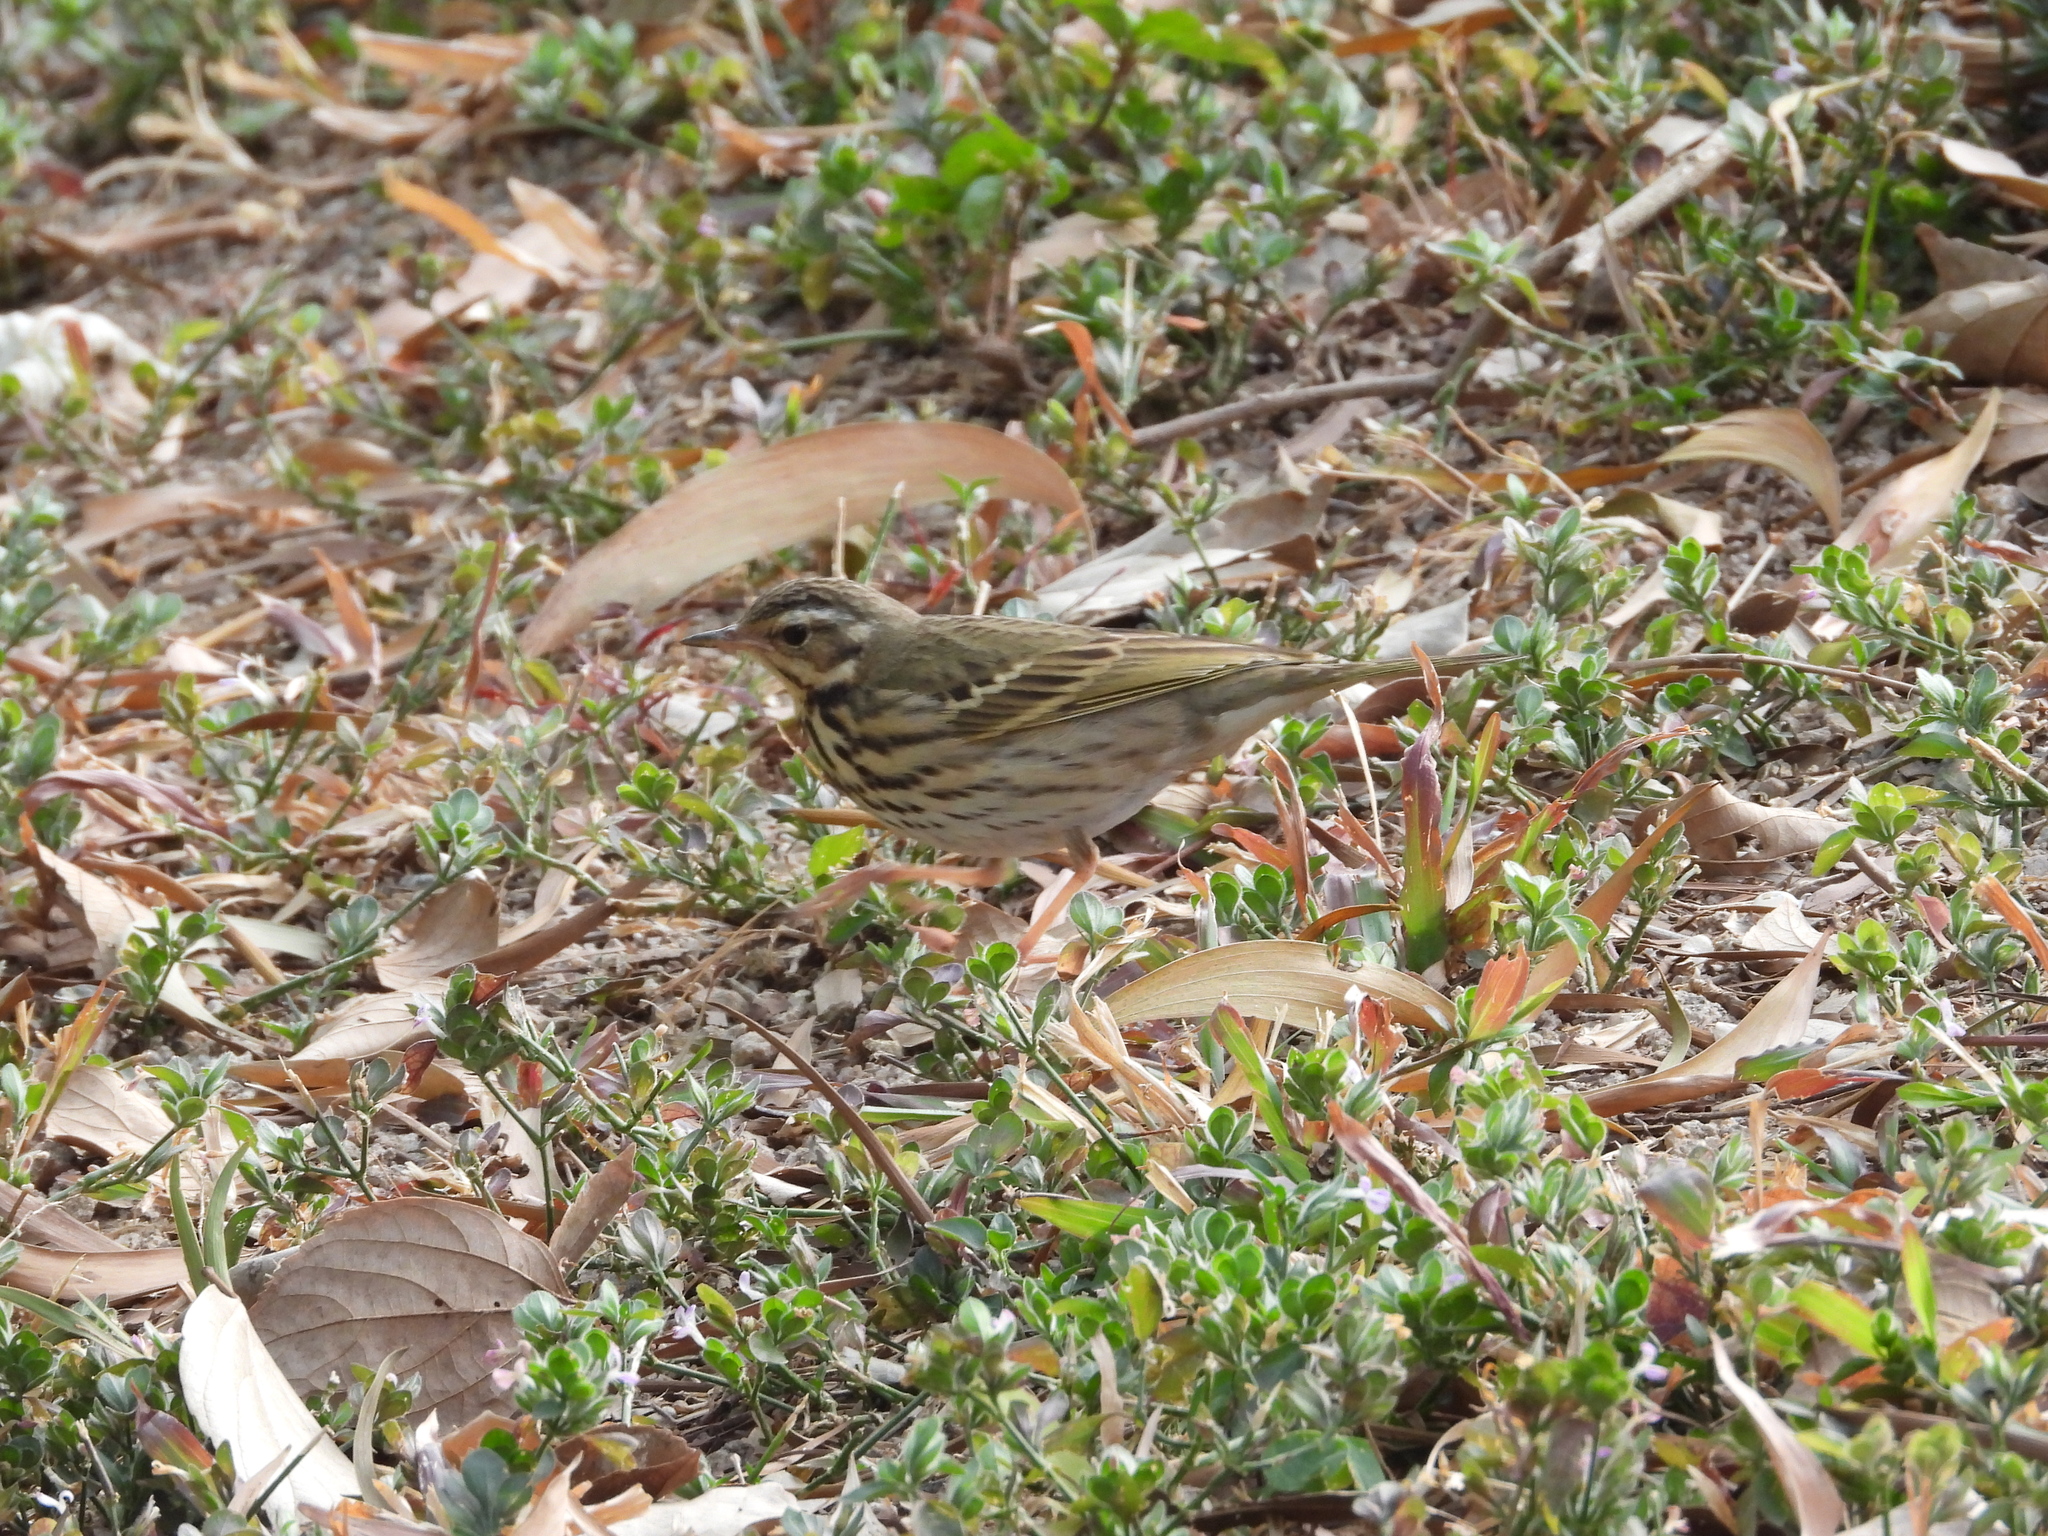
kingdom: Animalia
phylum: Chordata
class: Aves
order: Passeriformes
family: Motacillidae
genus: Anthus
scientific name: Anthus hodgsoni
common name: Olive-backed pipit
